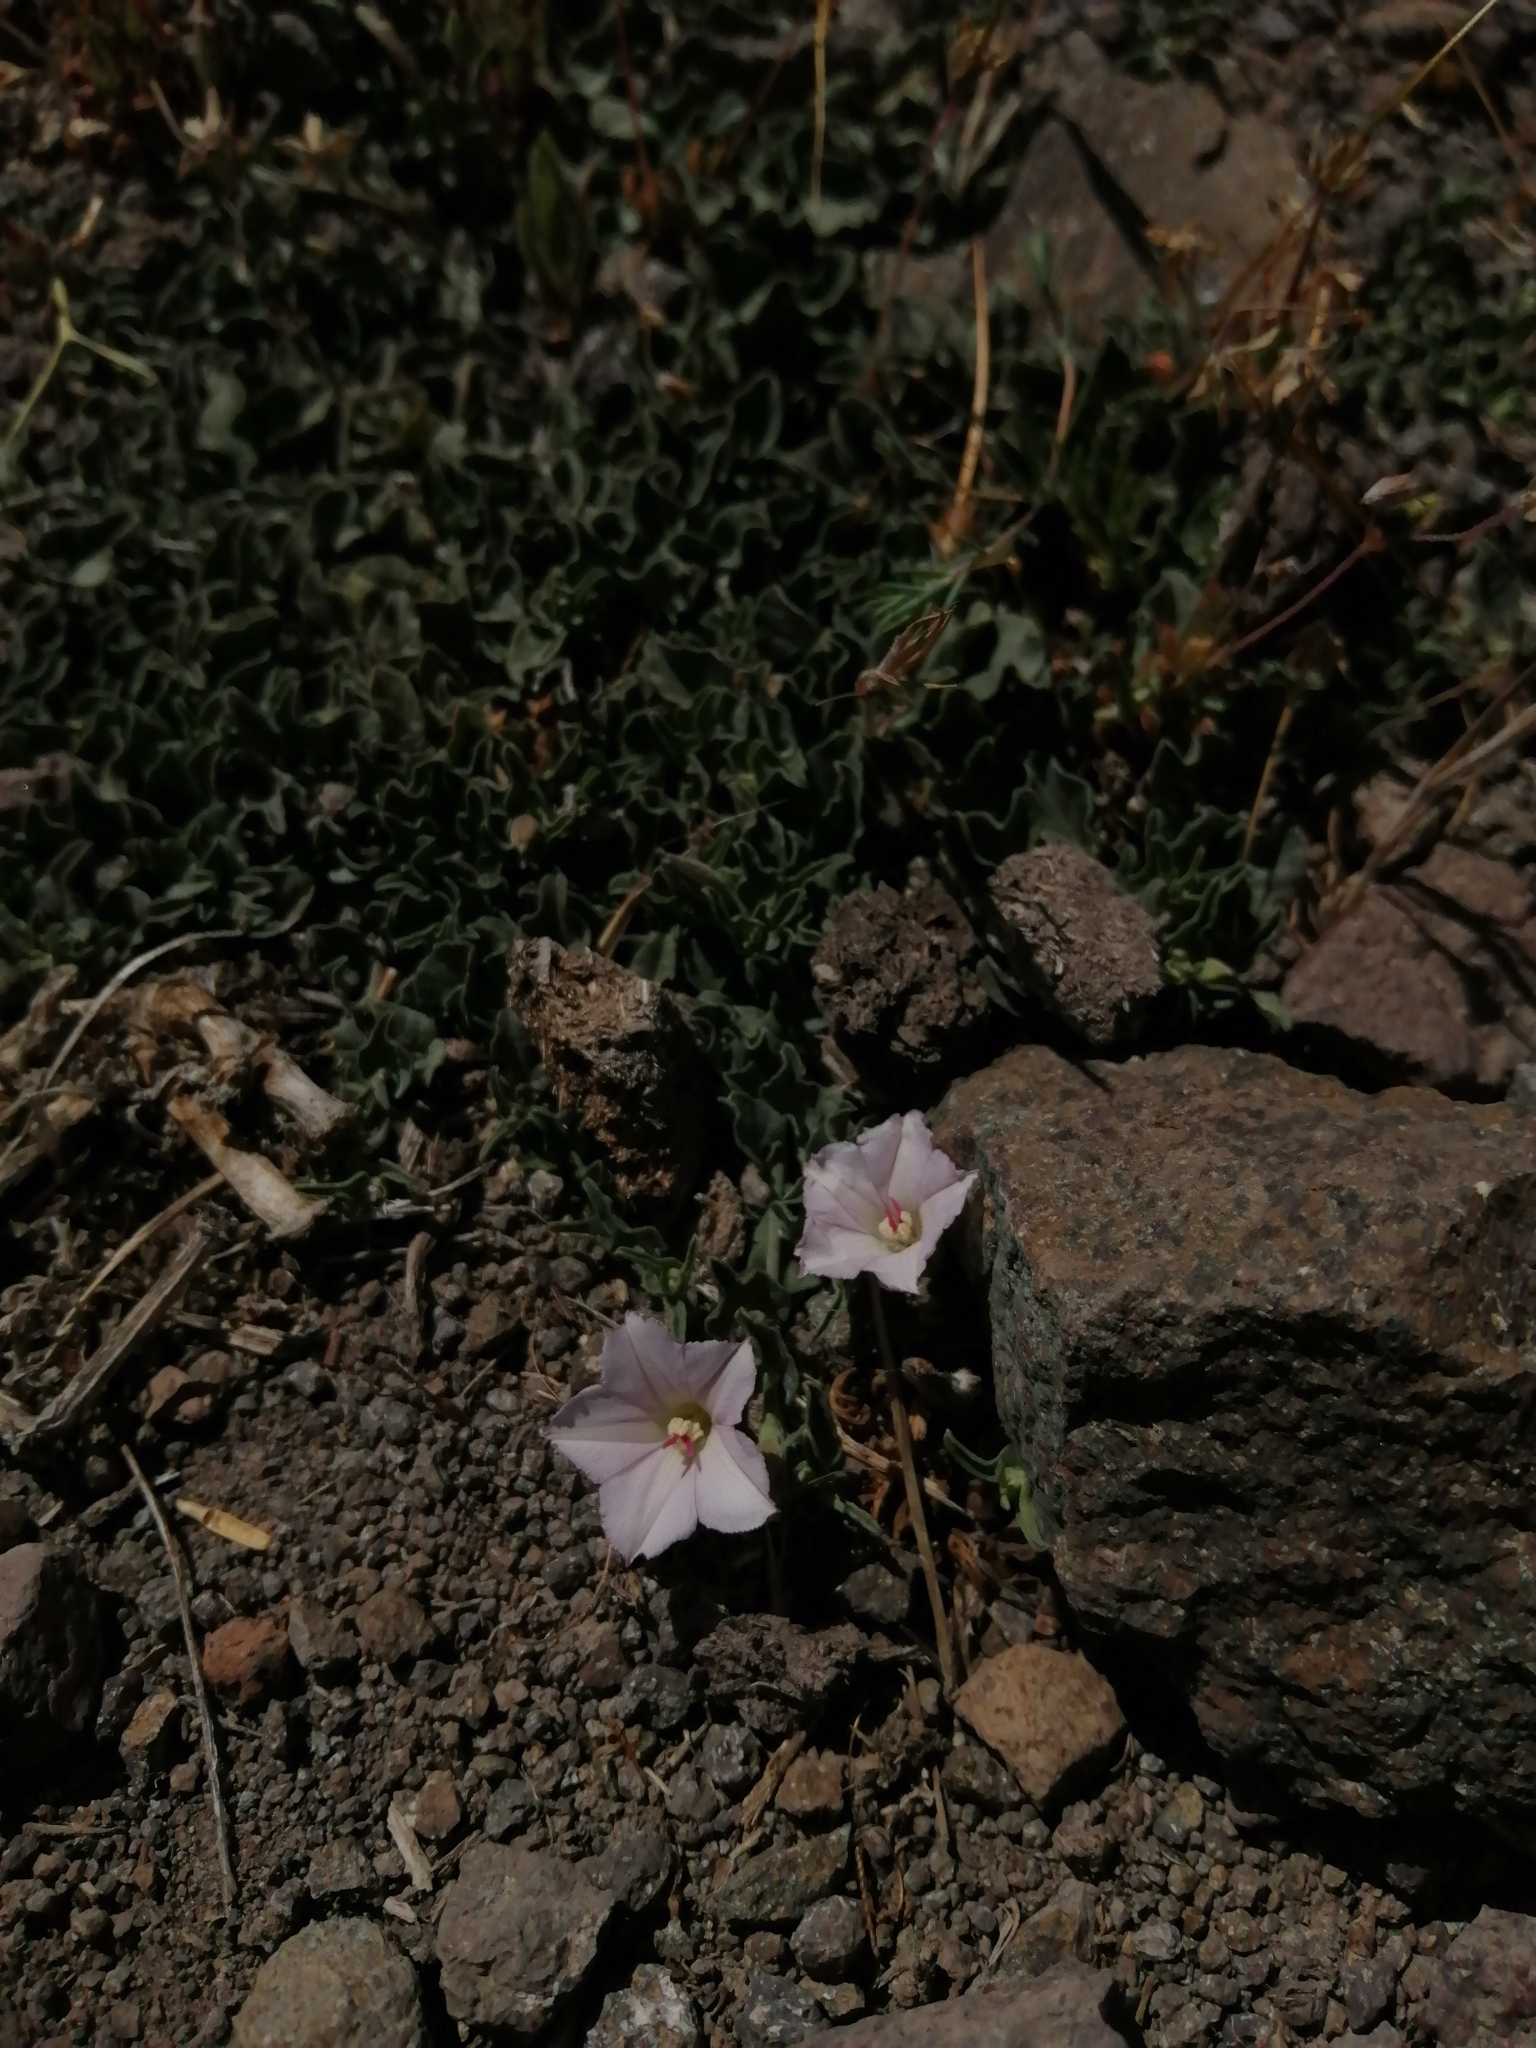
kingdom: Plantae
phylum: Tracheophyta
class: Magnoliopsida
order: Solanales
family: Convolvulaceae
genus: Convolvulus
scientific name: Convolvulus demissus
